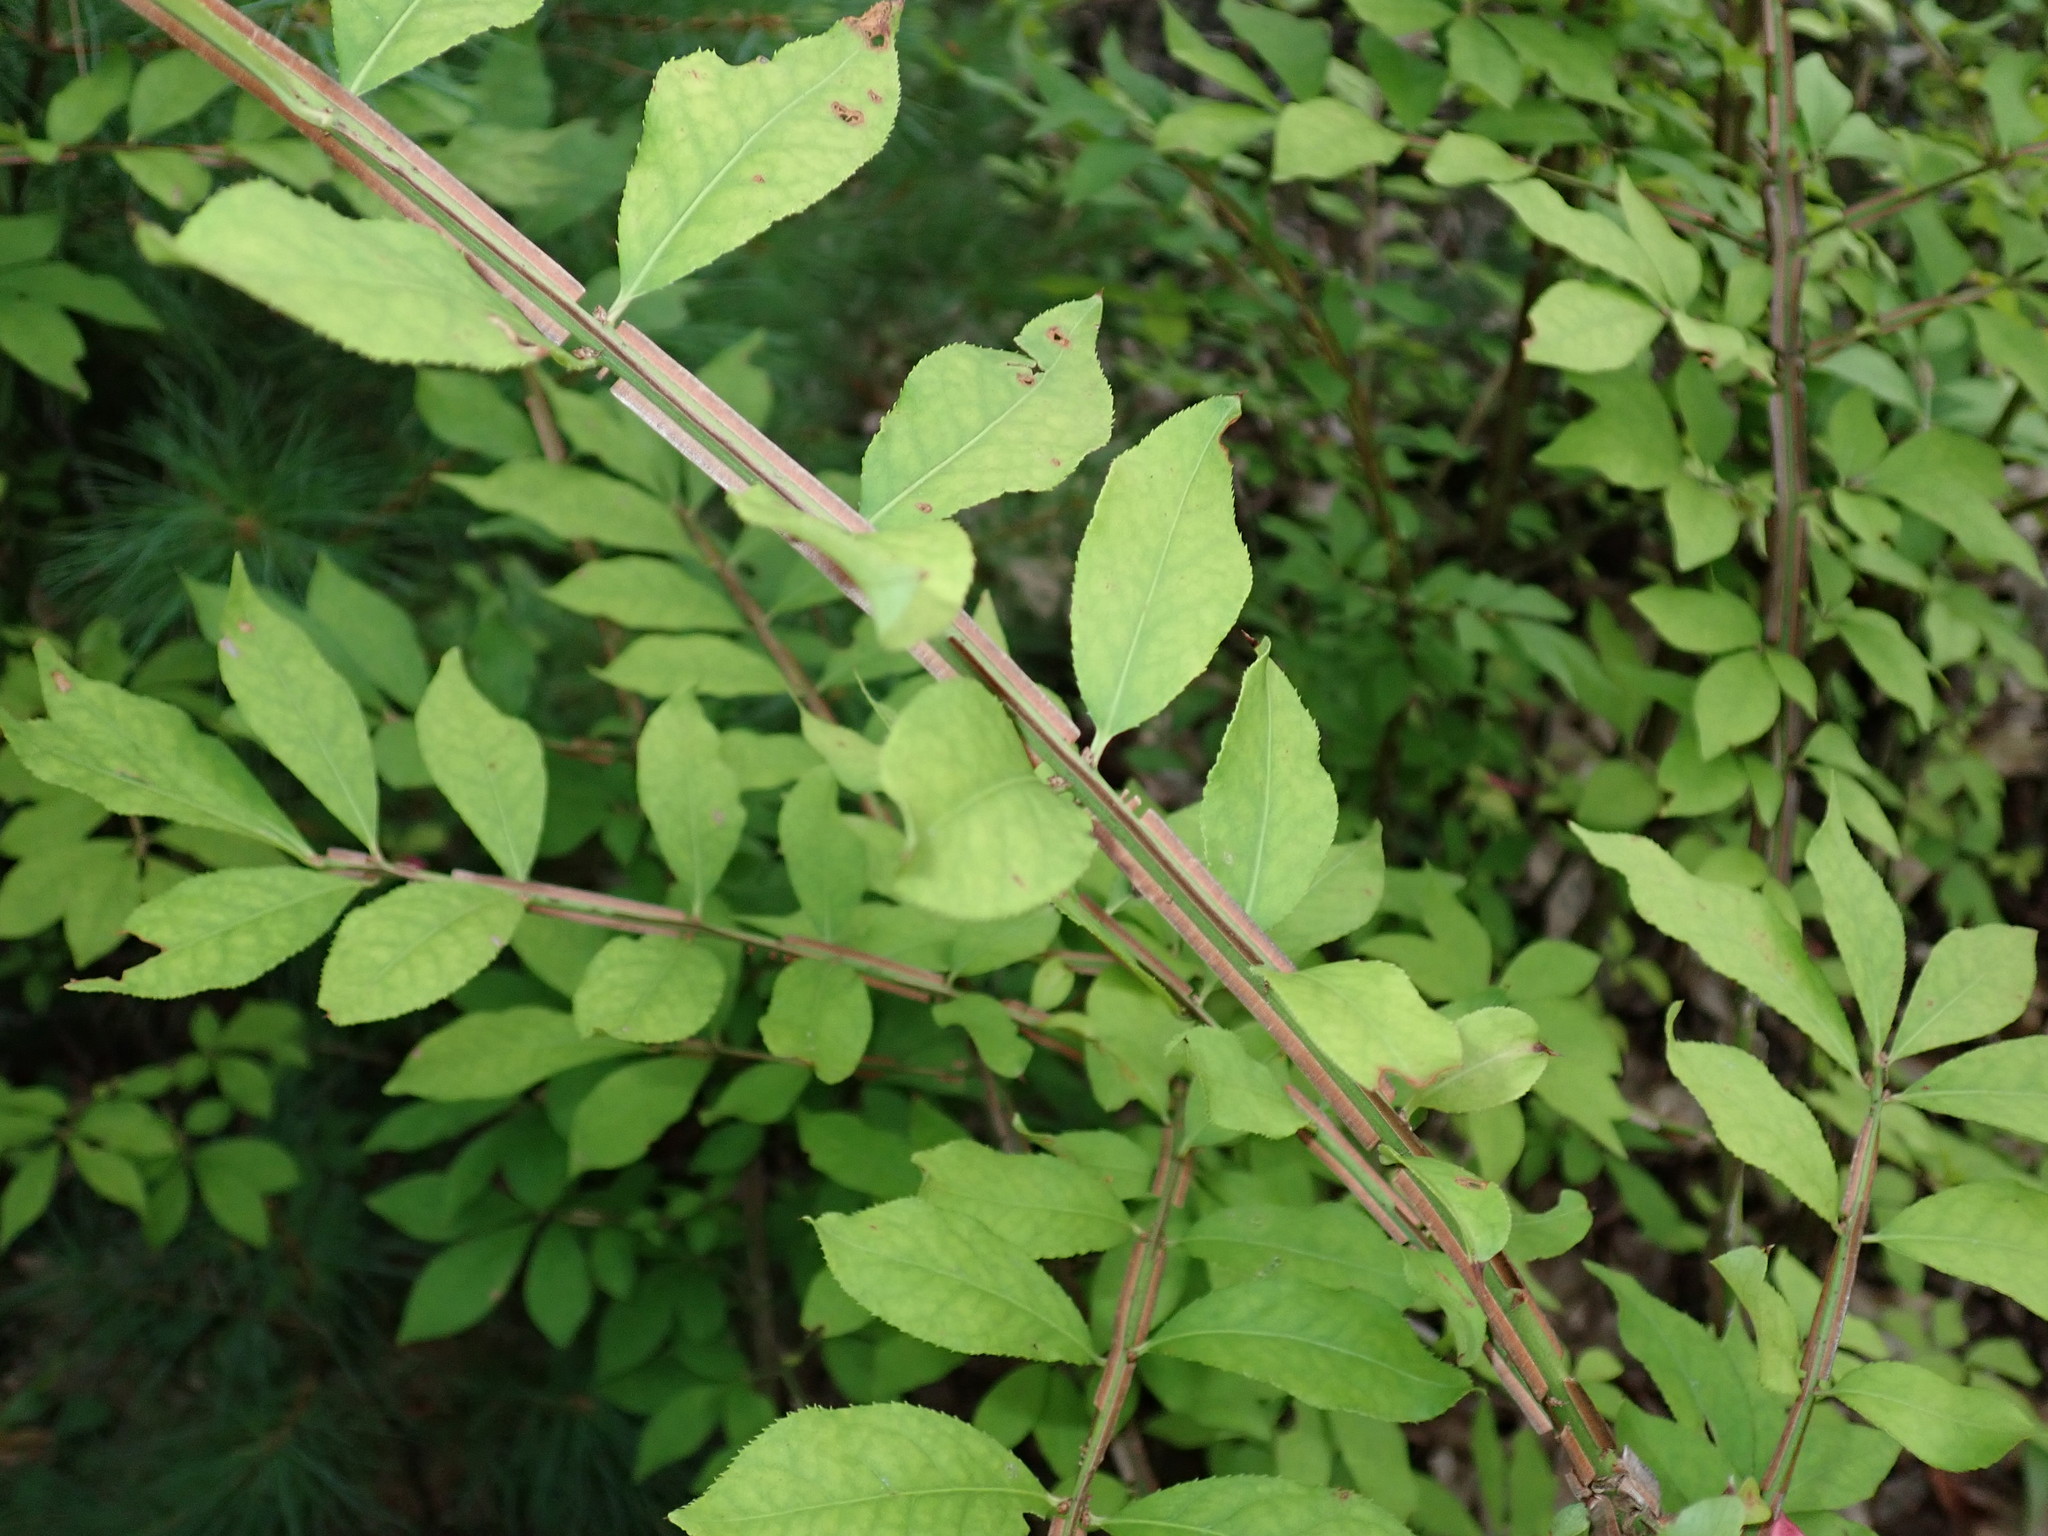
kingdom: Plantae
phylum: Tracheophyta
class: Magnoliopsida
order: Celastrales
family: Celastraceae
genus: Euonymus
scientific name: Euonymus alatus
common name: Winged euonymus
